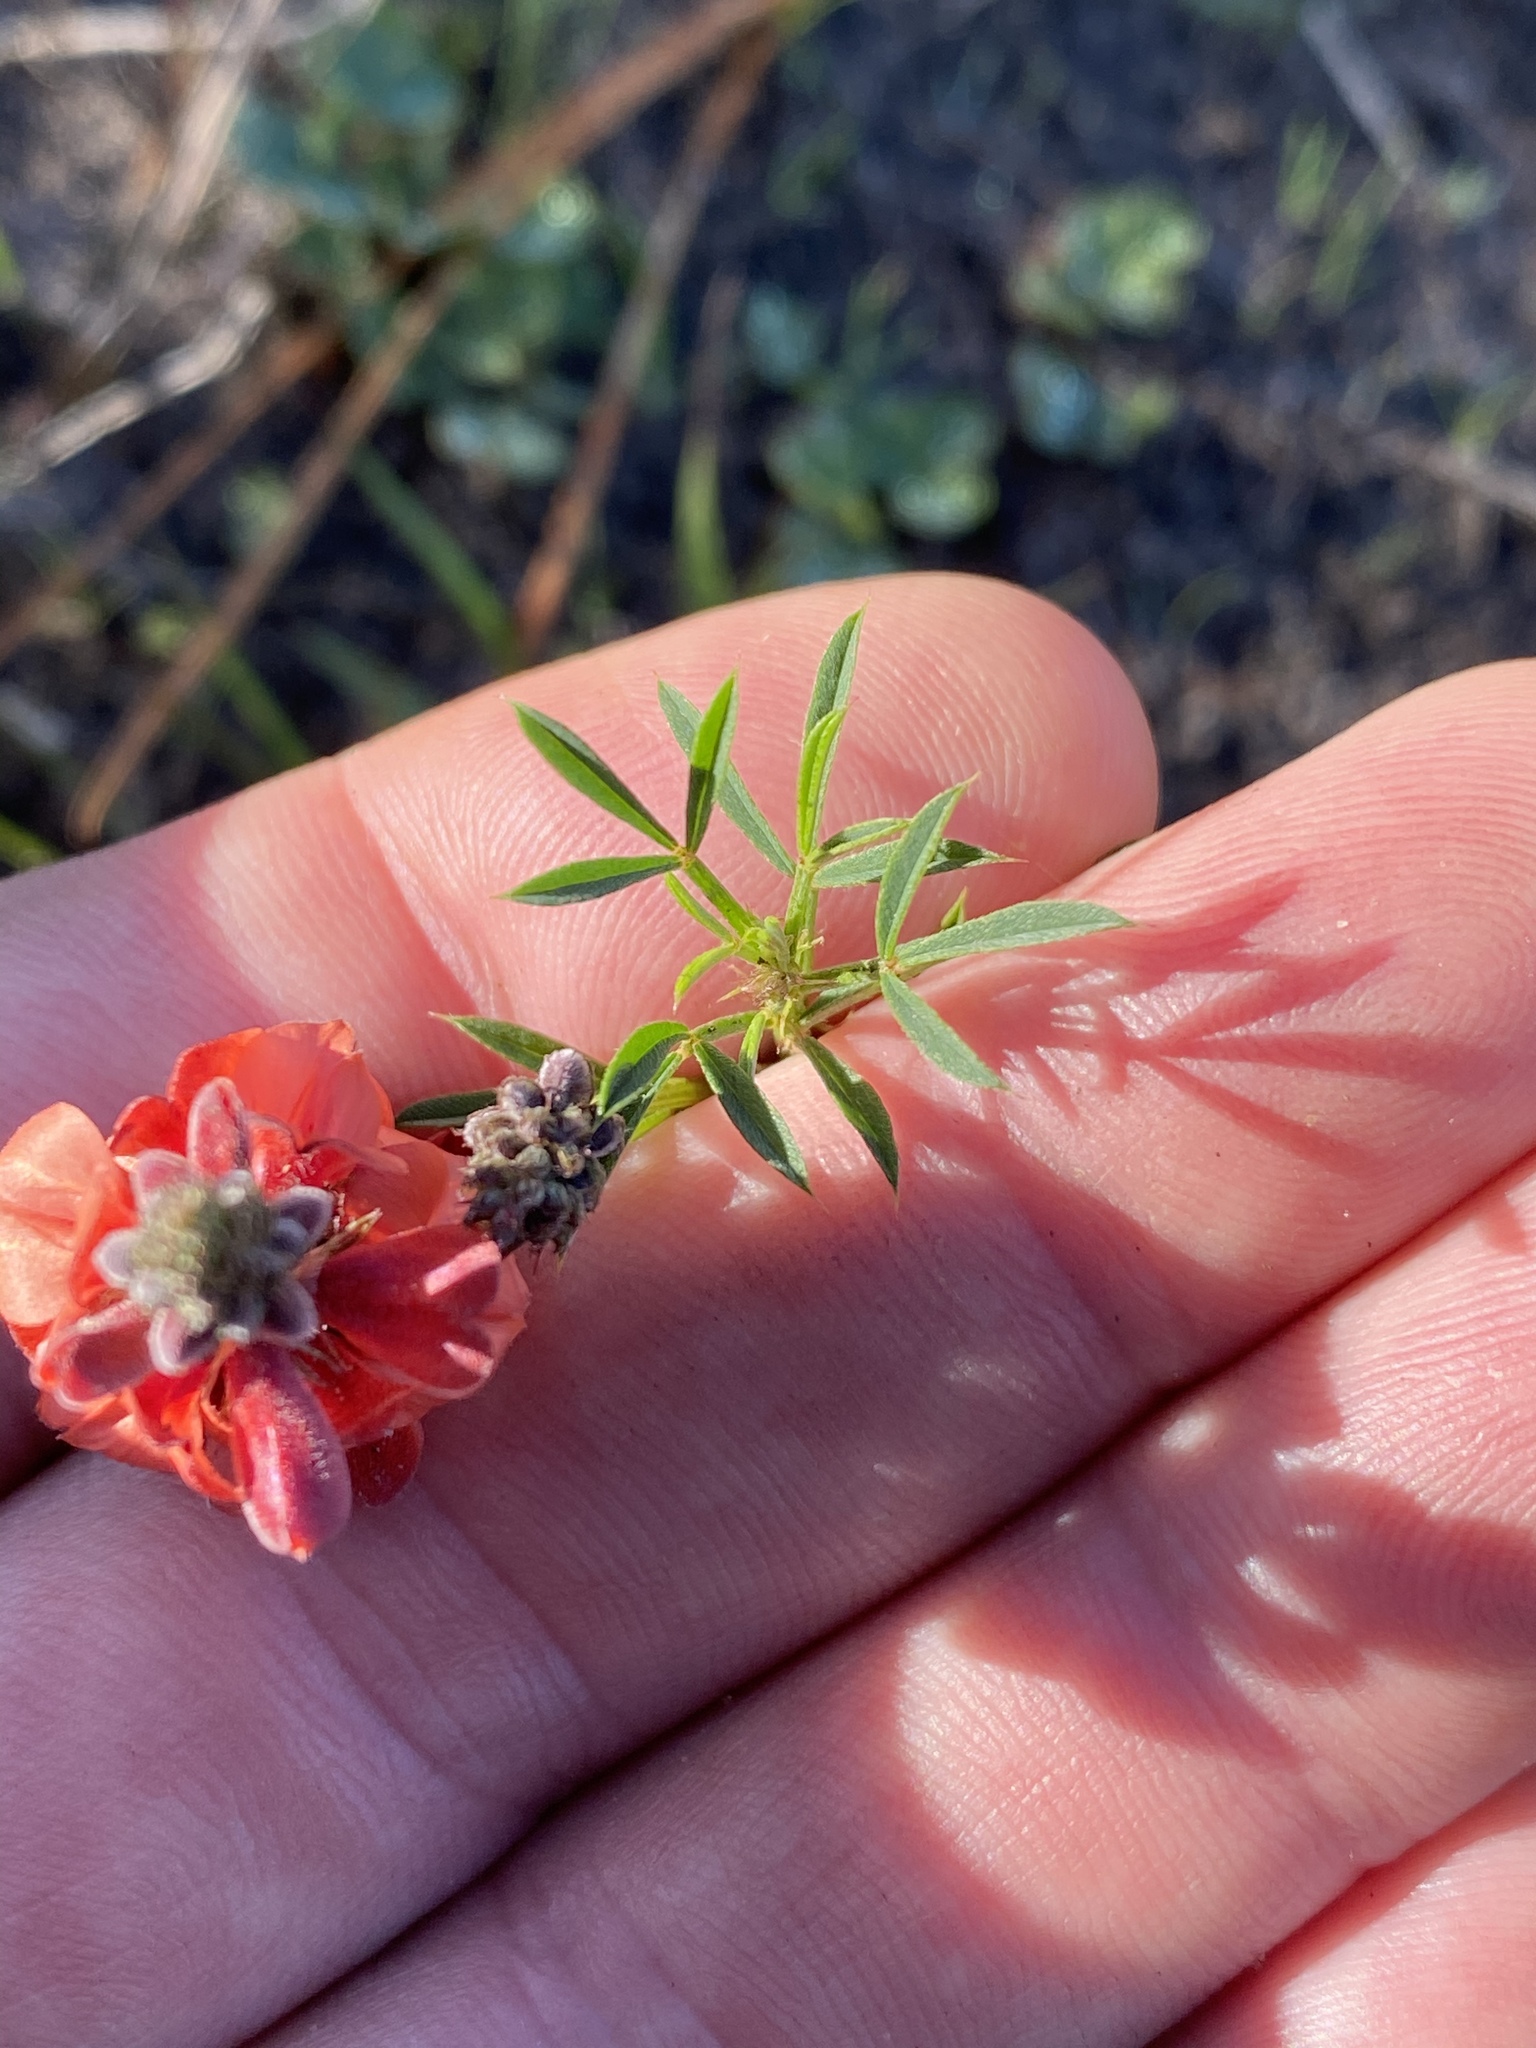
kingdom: Plantae
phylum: Tracheophyta
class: Magnoliopsida
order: Fabales
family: Fabaceae
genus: Indigofera
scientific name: Indigofera heterophylla
